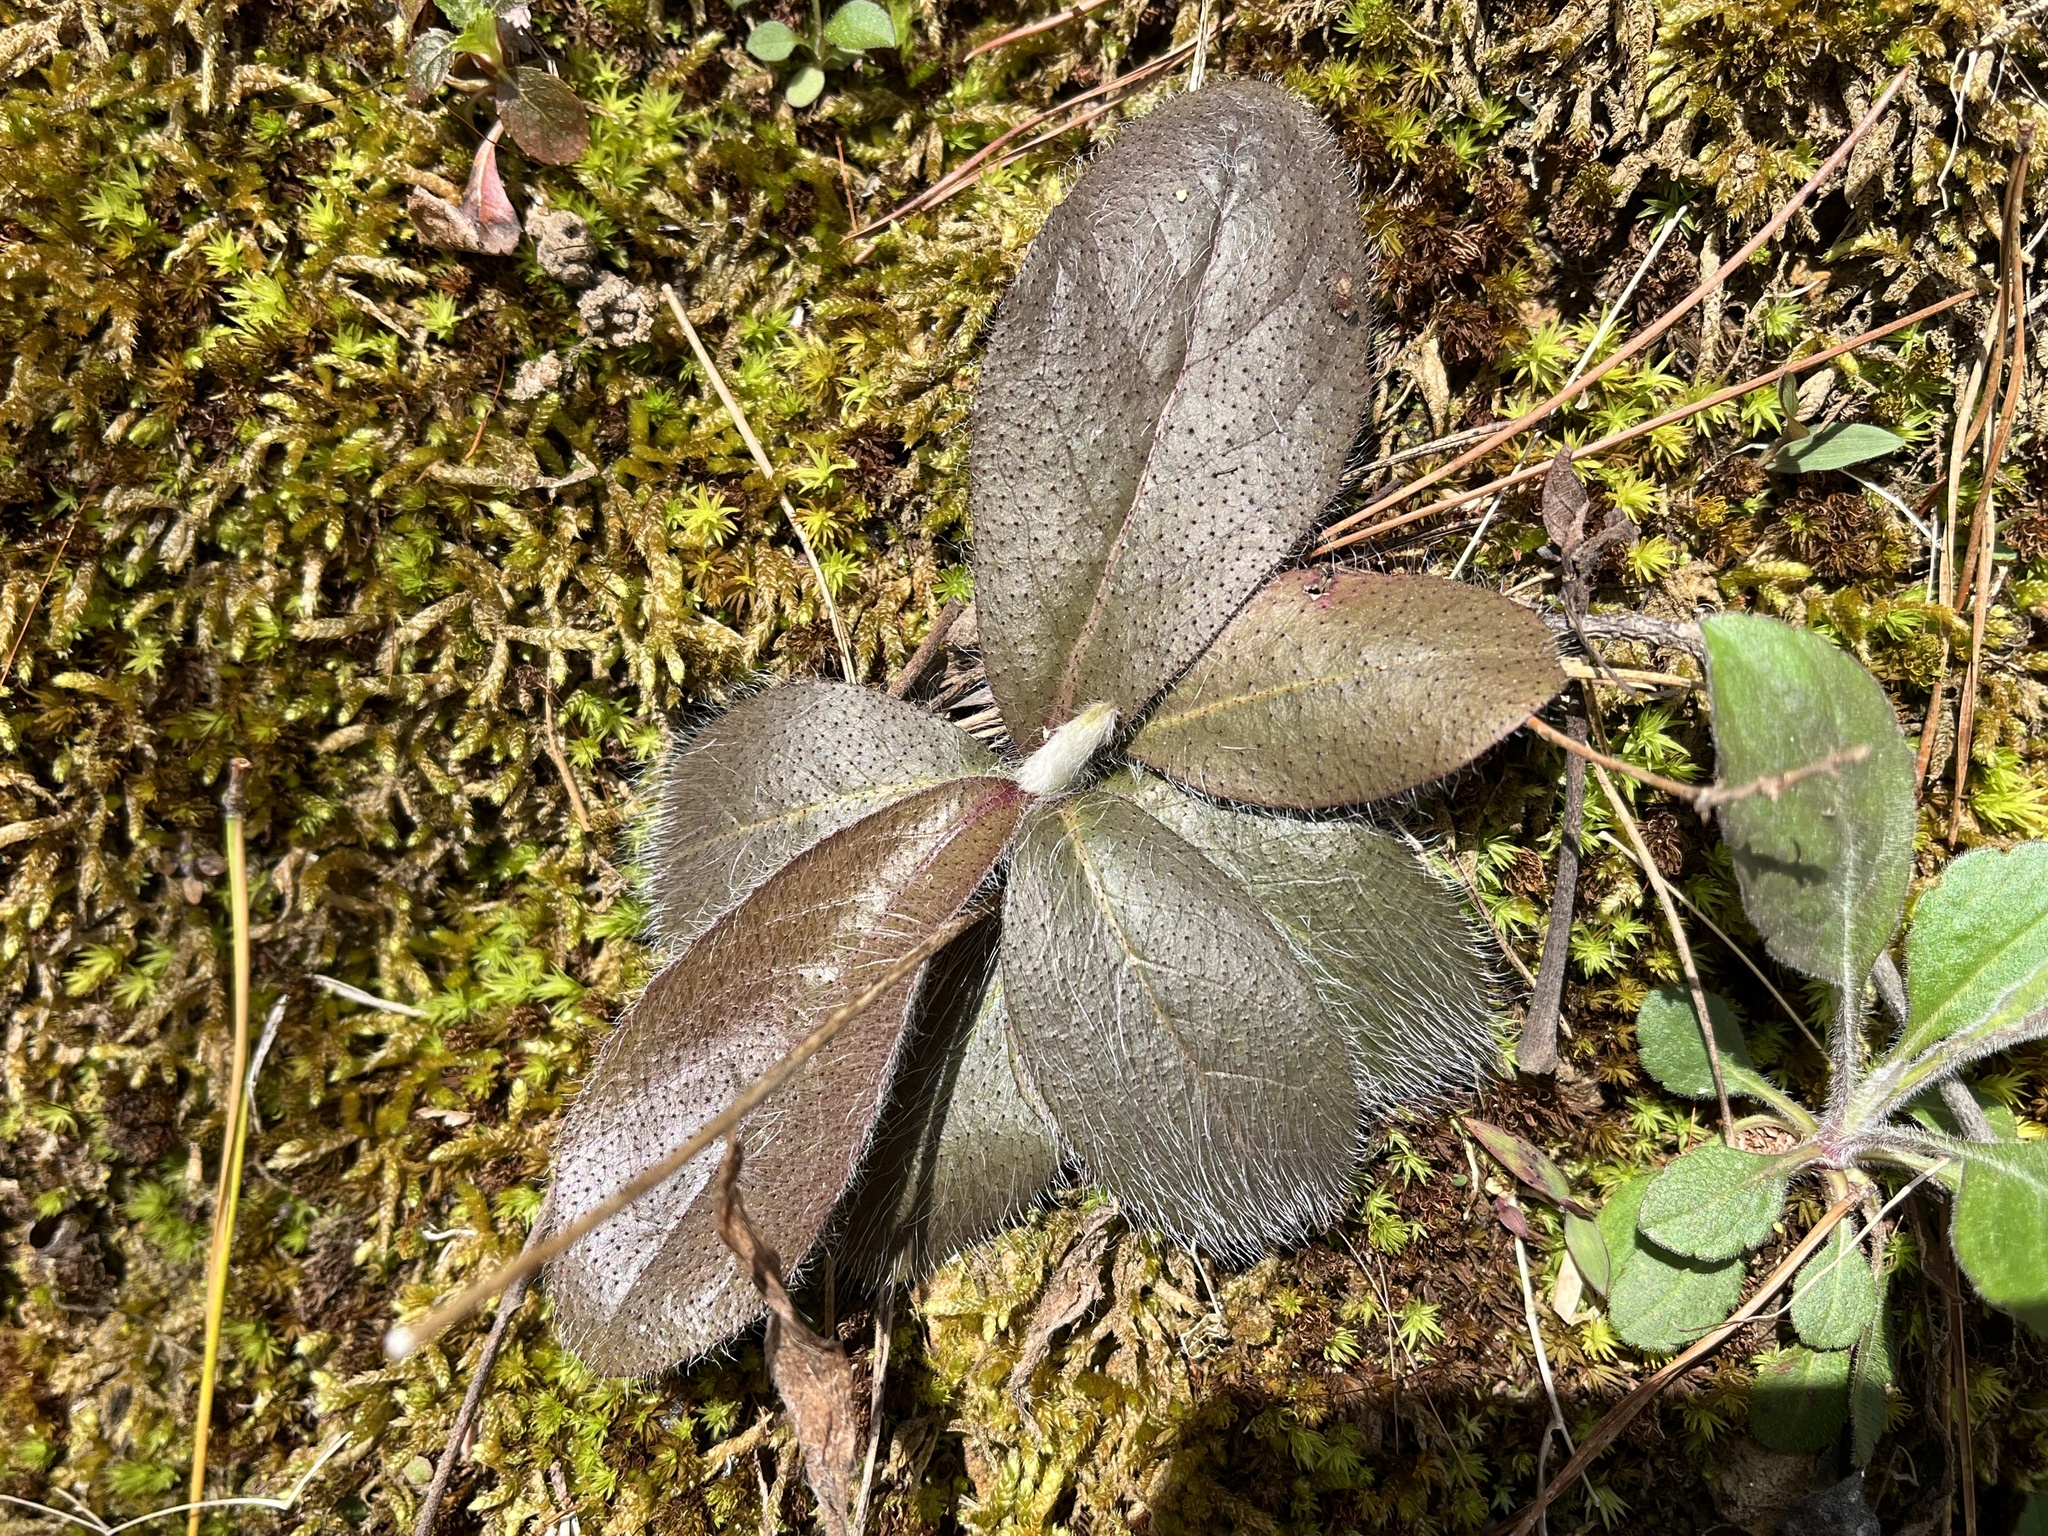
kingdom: Plantae
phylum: Tracheophyta
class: Magnoliopsida
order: Asterales
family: Asteraceae
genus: Hieracium
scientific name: Hieracium gronovii
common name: Beaked hawkweed
